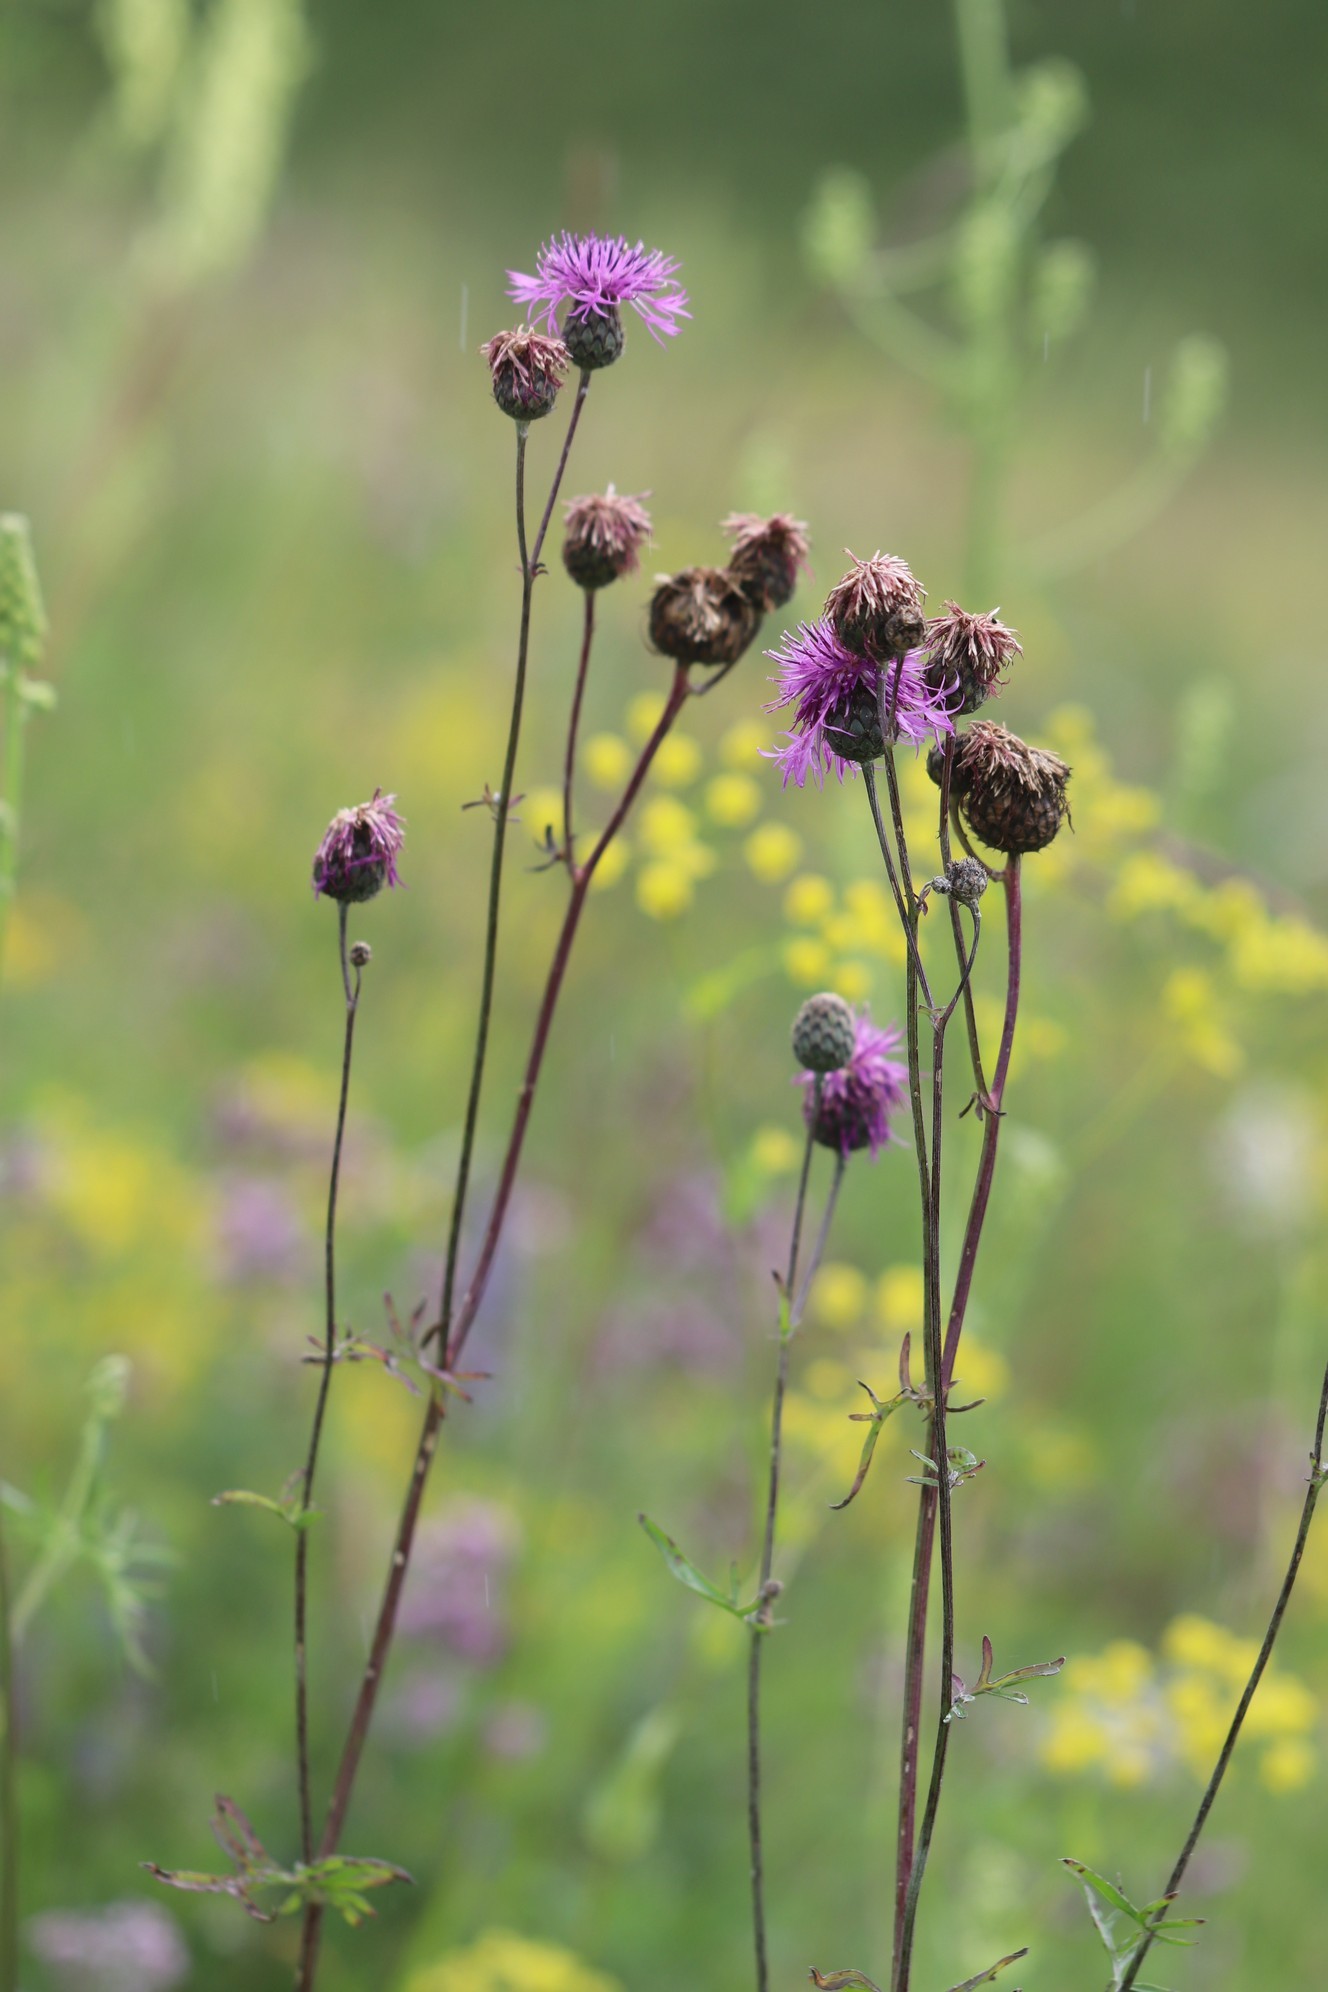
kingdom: Plantae
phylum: Tracheophyta
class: Magnoliopsida
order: Asterales
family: Asteraceae
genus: Centaurea
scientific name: Centaurea scabiosa
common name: Greater knapweed
